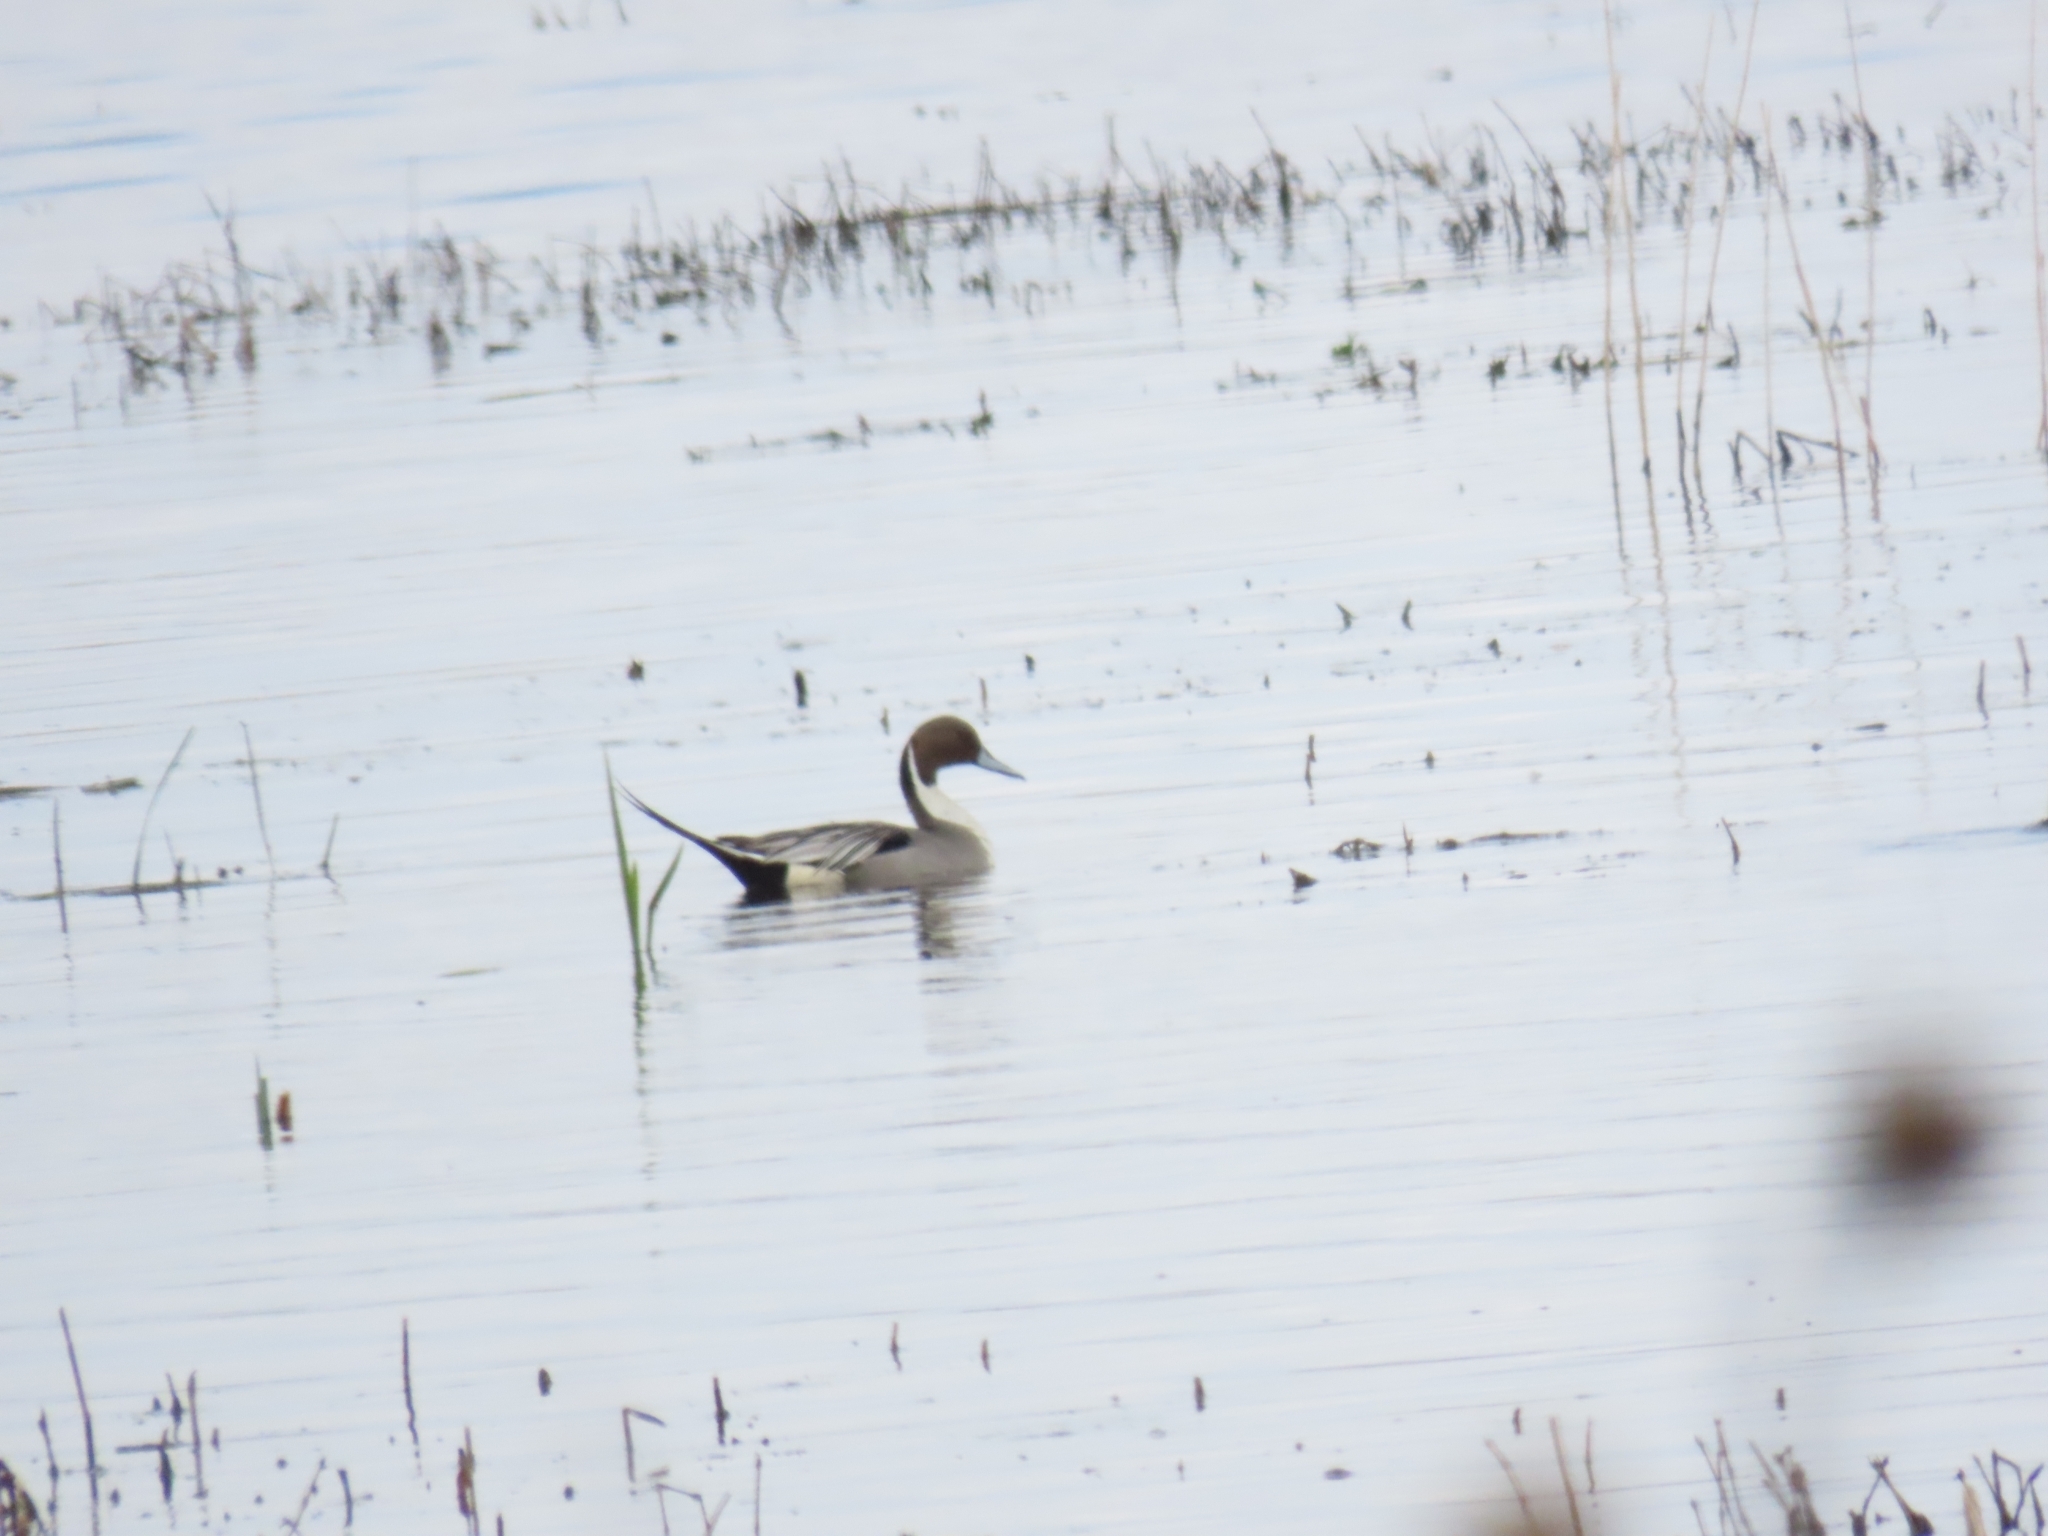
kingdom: Animalia
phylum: Chordata
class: Aves
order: Anseriformes
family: Anatidae
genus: Anas
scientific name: Anas acuta
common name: Northern pintail
